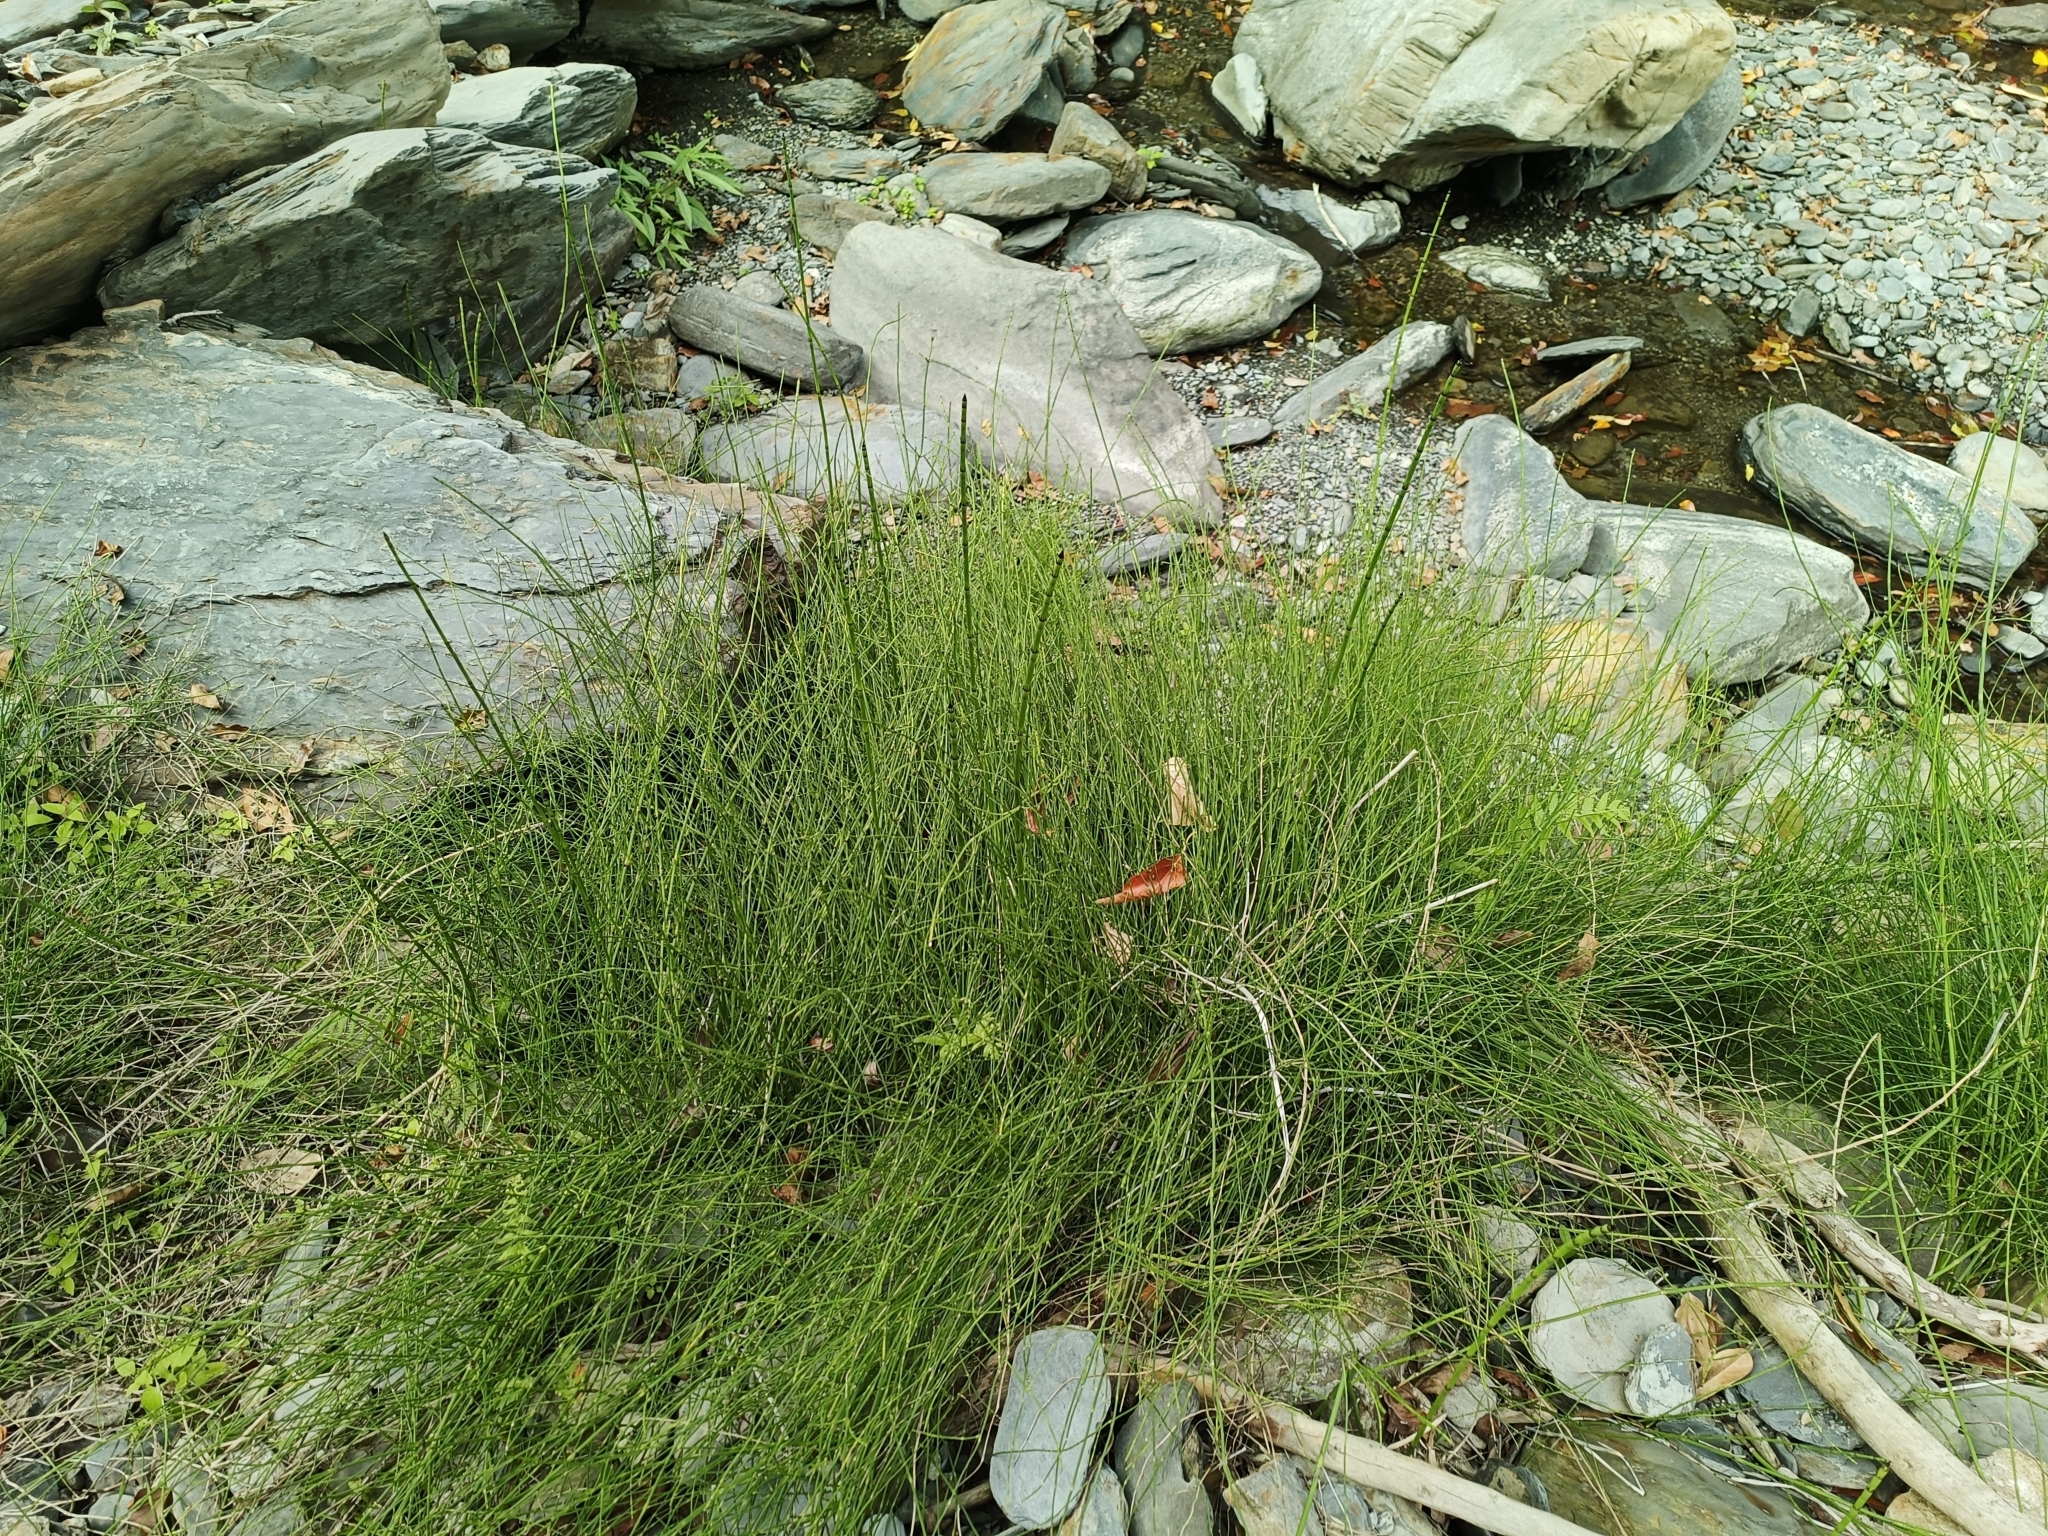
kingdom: Plantae
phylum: Tracheophyta
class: Polypodiopsida
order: Equisetales
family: Equisetaceae
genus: Equisetum
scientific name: Equisetum ramosissimum
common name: Branched horsetail
